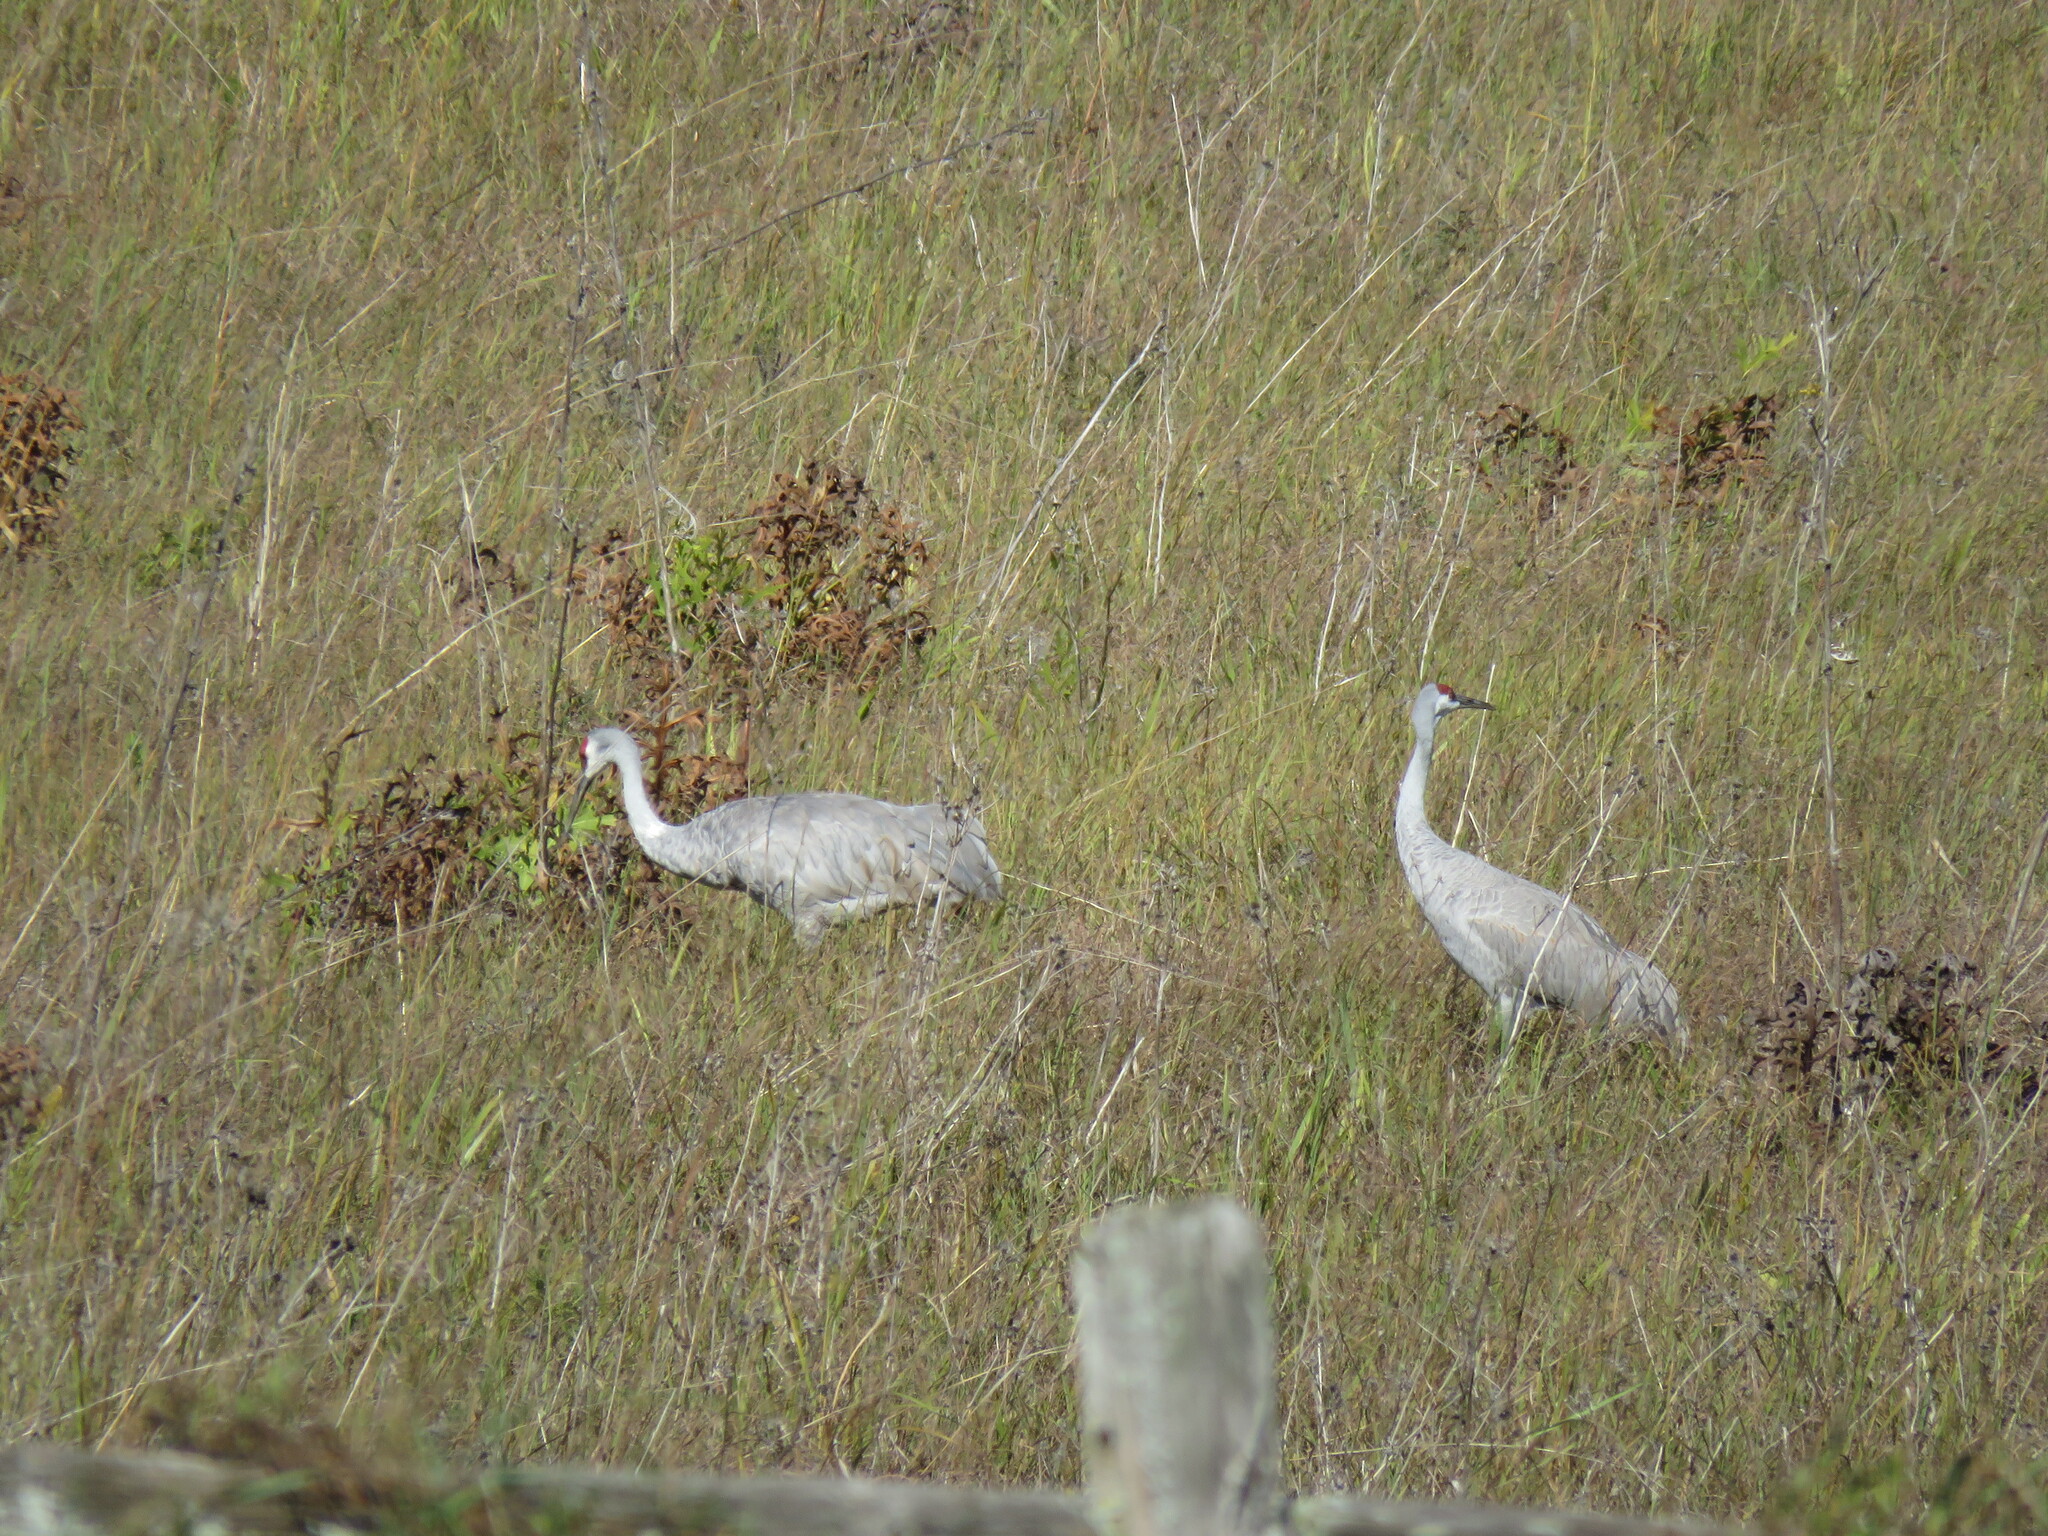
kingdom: Animalia
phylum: Chordata
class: Aves
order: Gruiformes
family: Gruidae
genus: Grus
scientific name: Grus canadensis
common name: Sandhill crane
